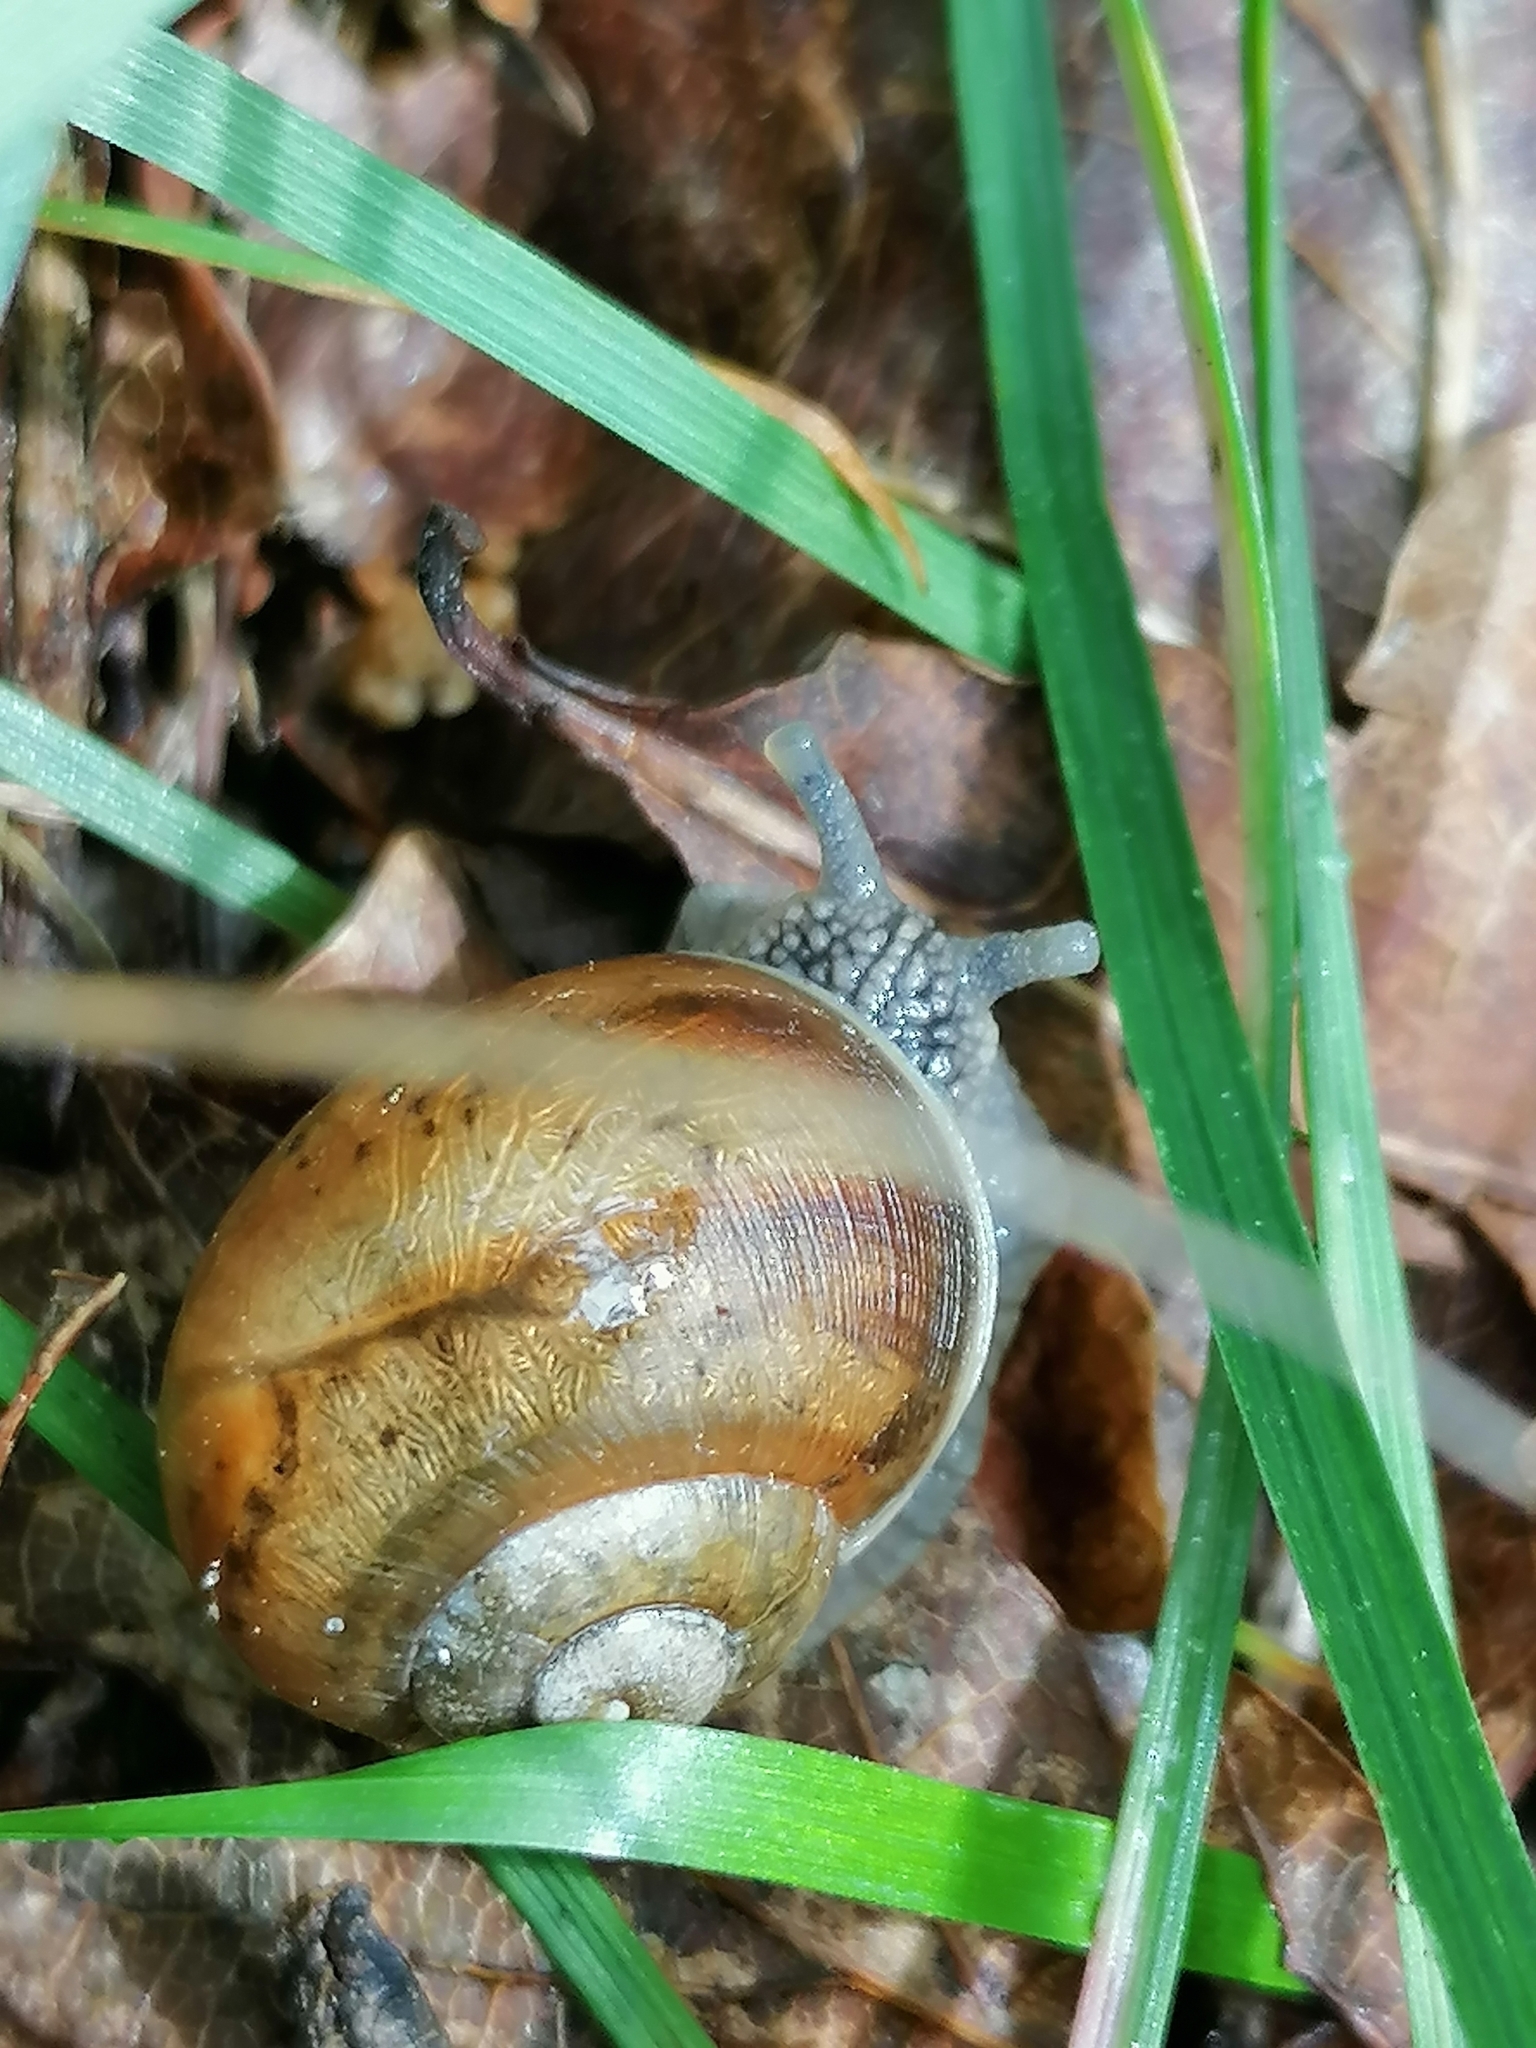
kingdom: Animalia
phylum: Mollusca
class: Gastropoda
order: Stylommatophora
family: Helicidae
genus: Helix
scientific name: Helix pomatia
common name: Roman snail
